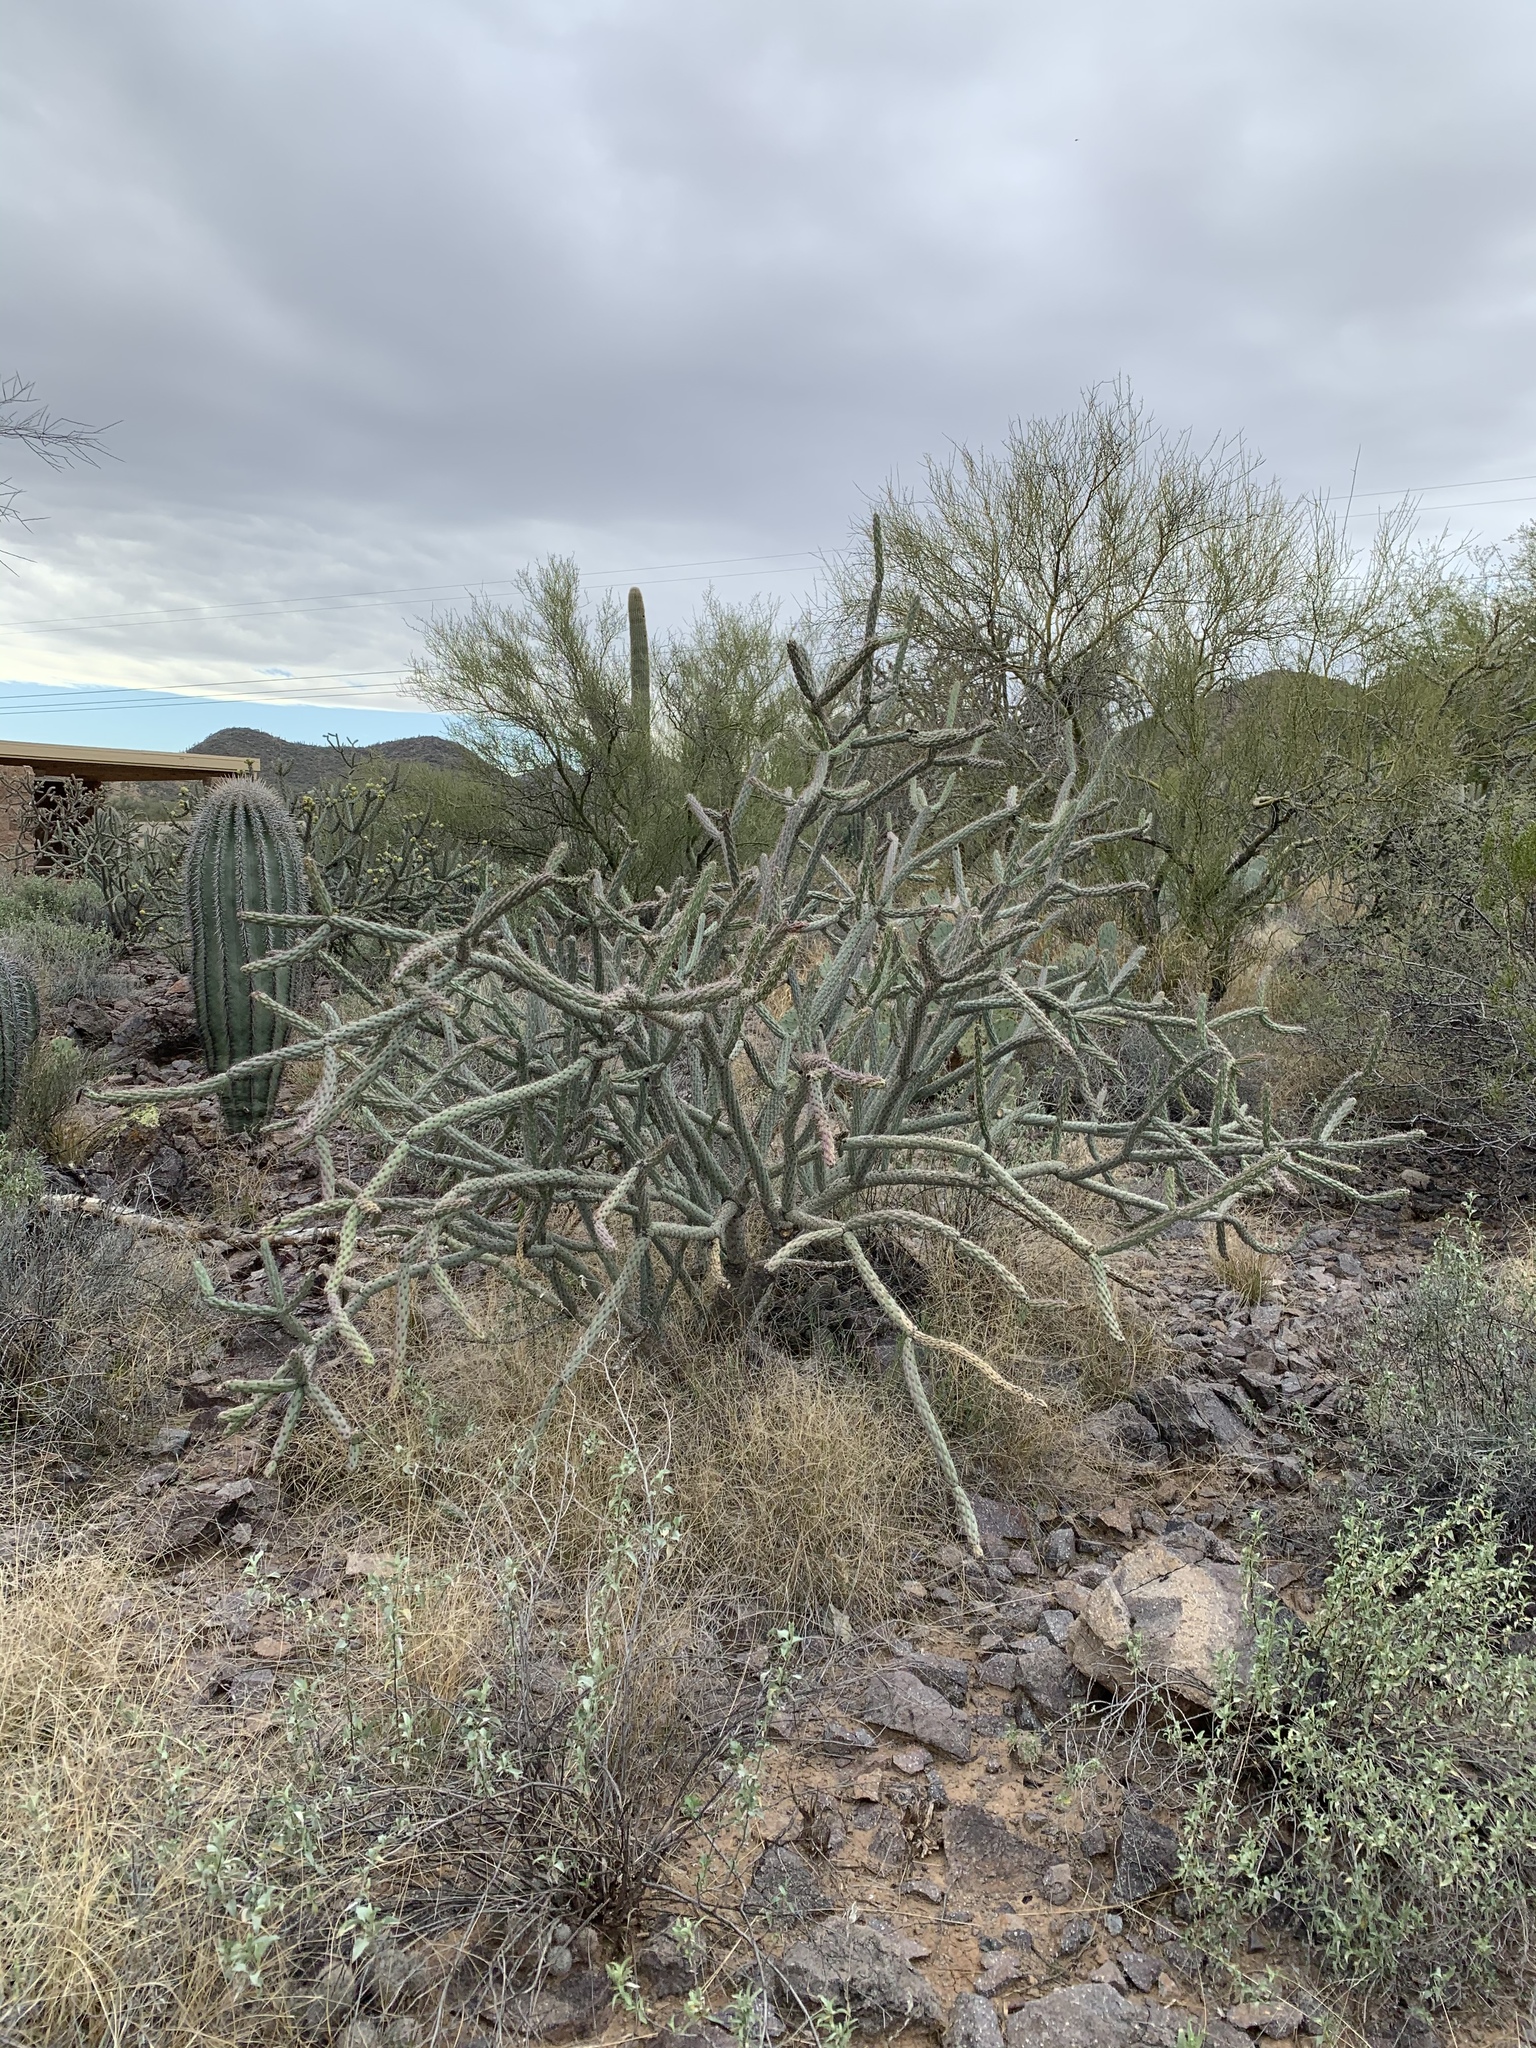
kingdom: Plantae
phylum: Tracheophyta
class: Magnoliopsida
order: Caryophyllales
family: Cactaceae
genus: Cylindropuntia
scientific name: Cylindropuntia thurberi
